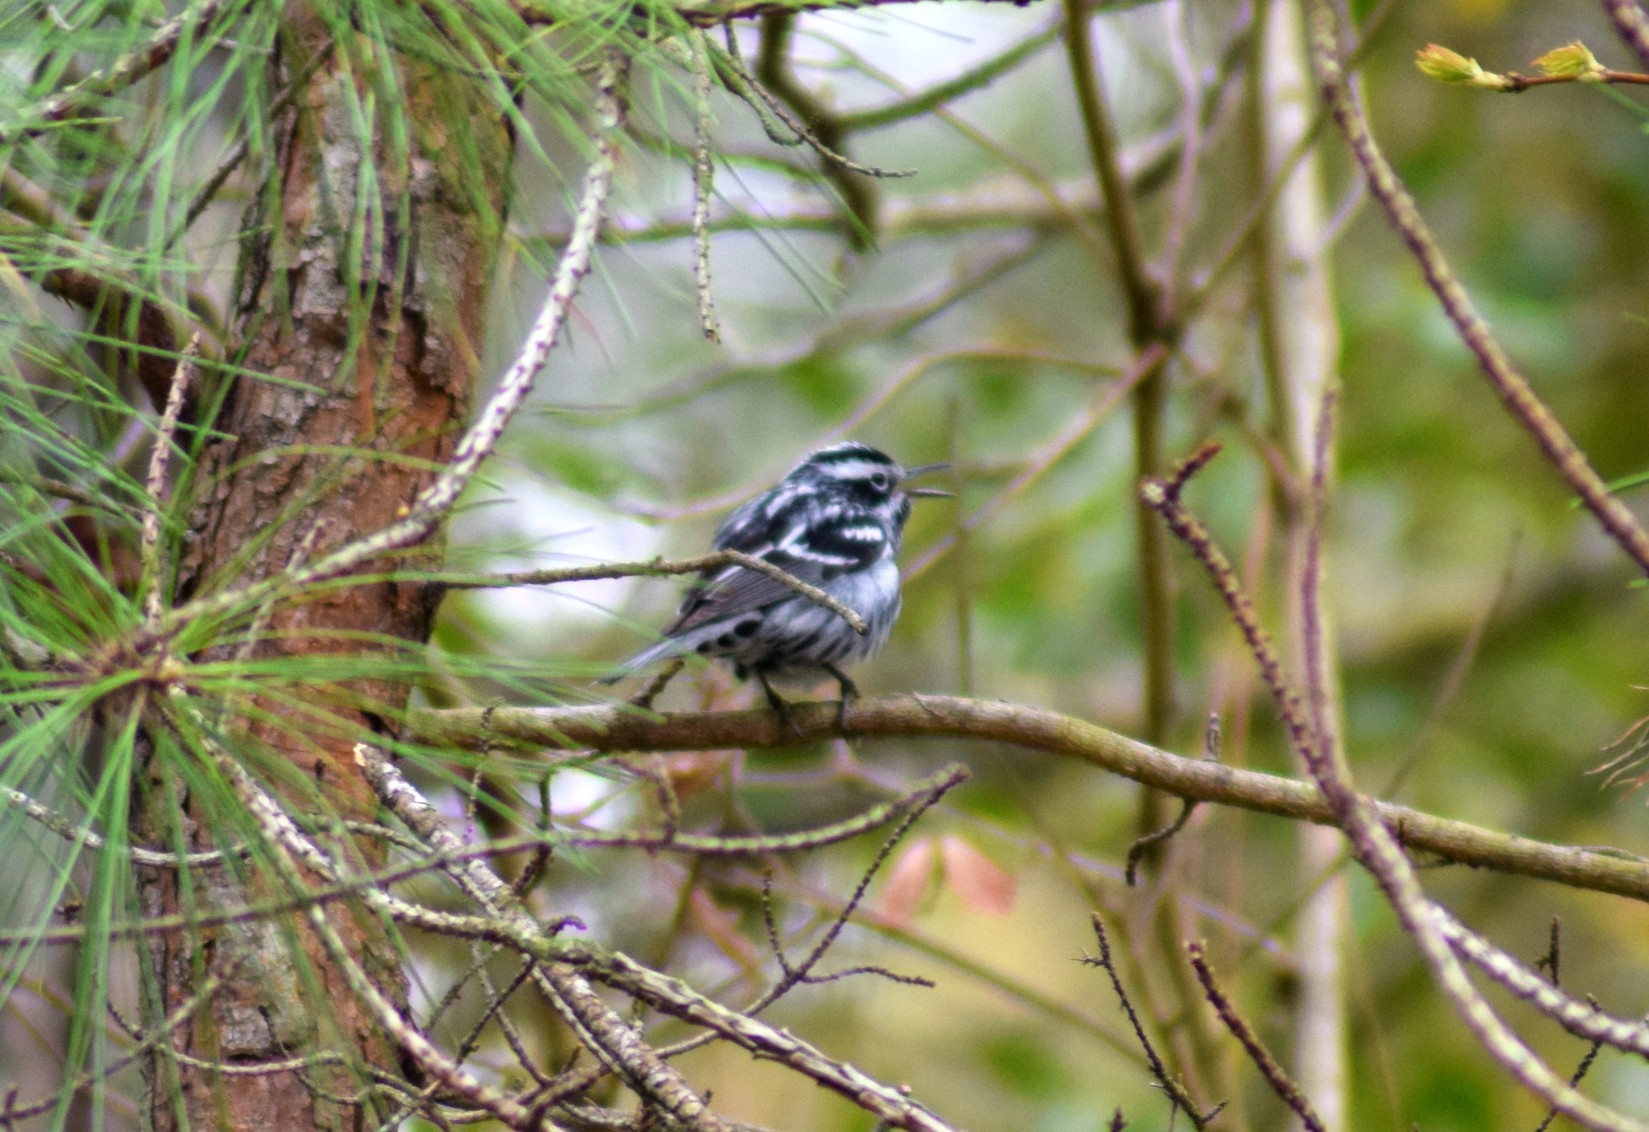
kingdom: Animalia
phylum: Chordata
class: Aves
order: Passeriformes
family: Parulidae
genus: Mniotilta
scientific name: Mniotilta varia
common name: Black-and-white warbler
